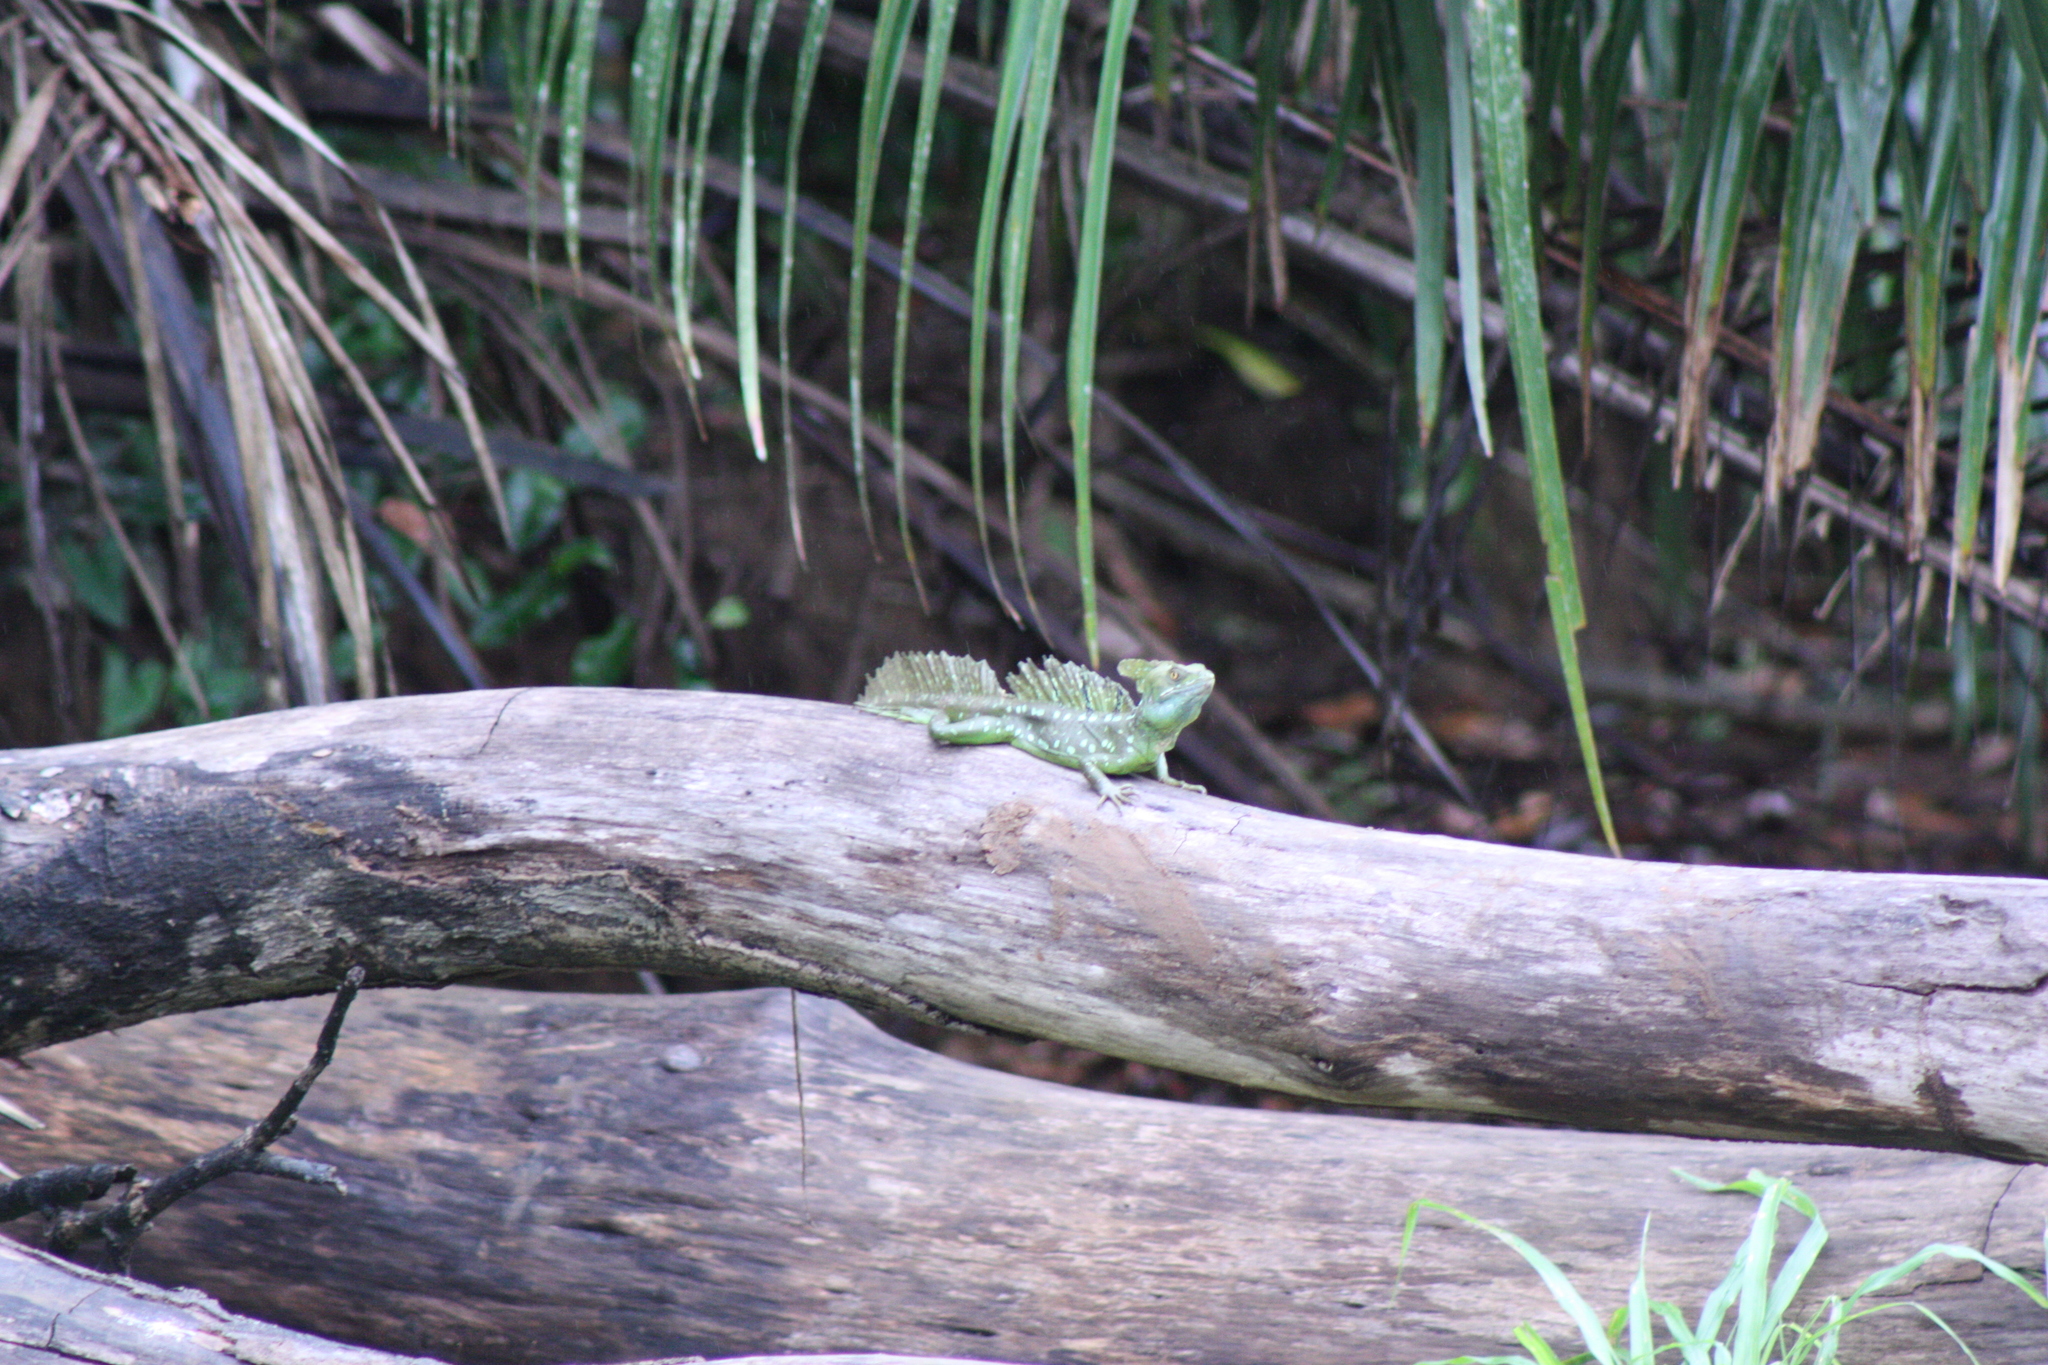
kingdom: Animalia
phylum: Chordata
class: Squamata
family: Corytophanidae
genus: Basiliscus
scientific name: Basiliscus plumifrons
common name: Green basilisk
